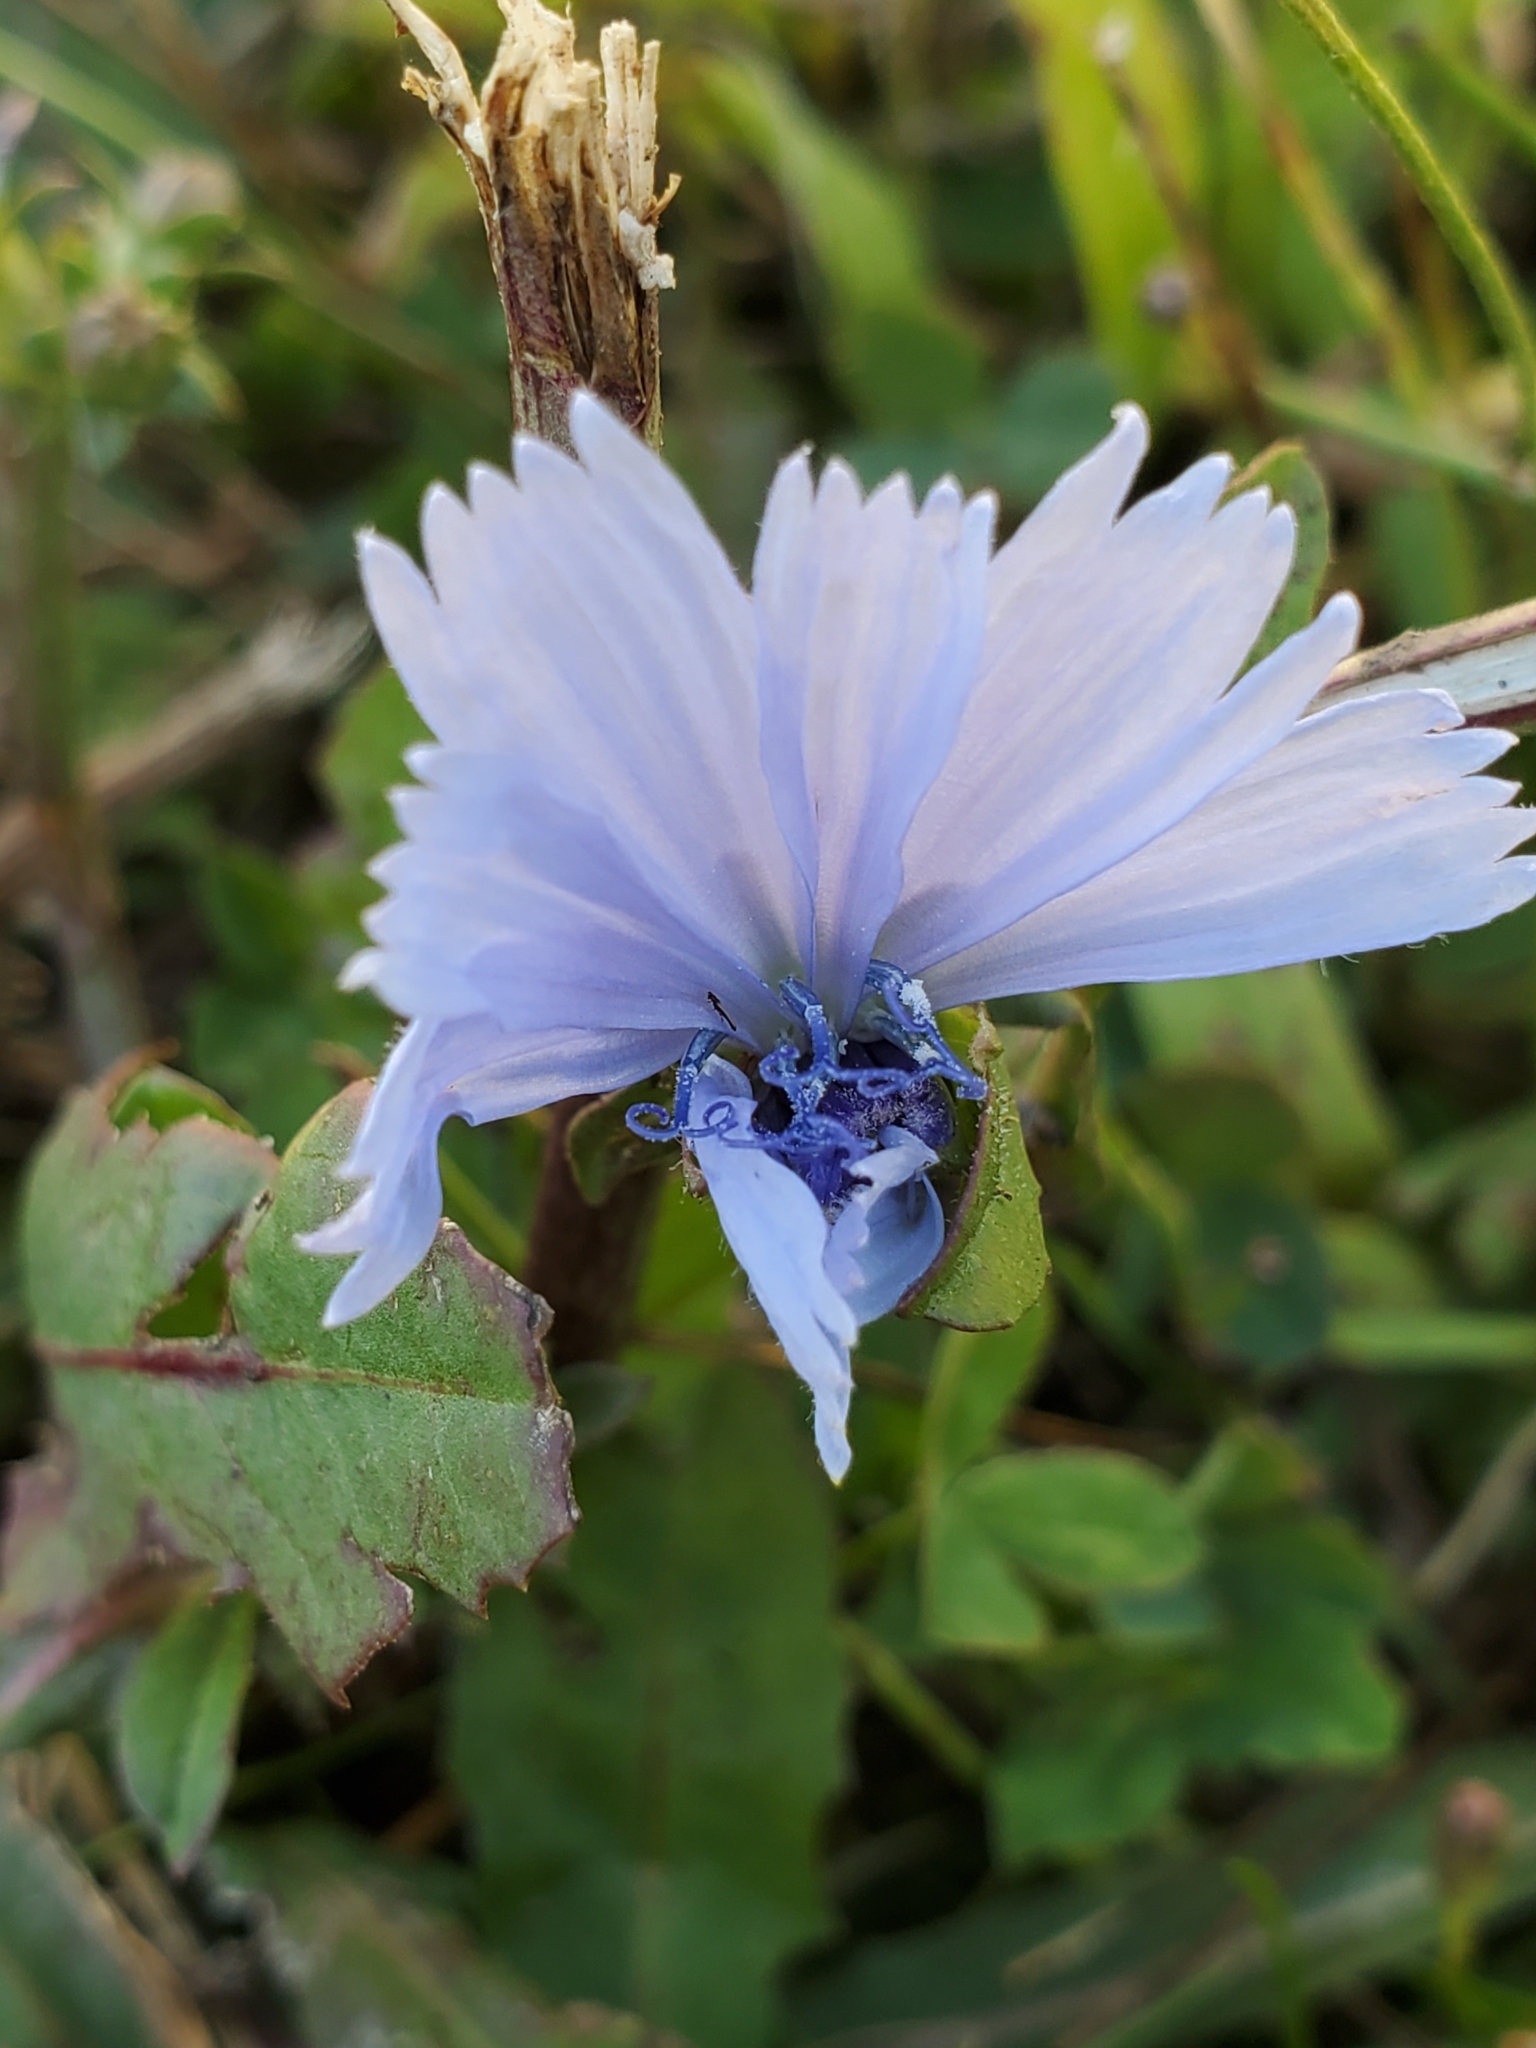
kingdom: Plantae
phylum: Tracheophyta
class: Magnoliopsida
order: Asterales
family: Asteraceae
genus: Cichorium
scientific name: Cichorium intybus
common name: Chicory
